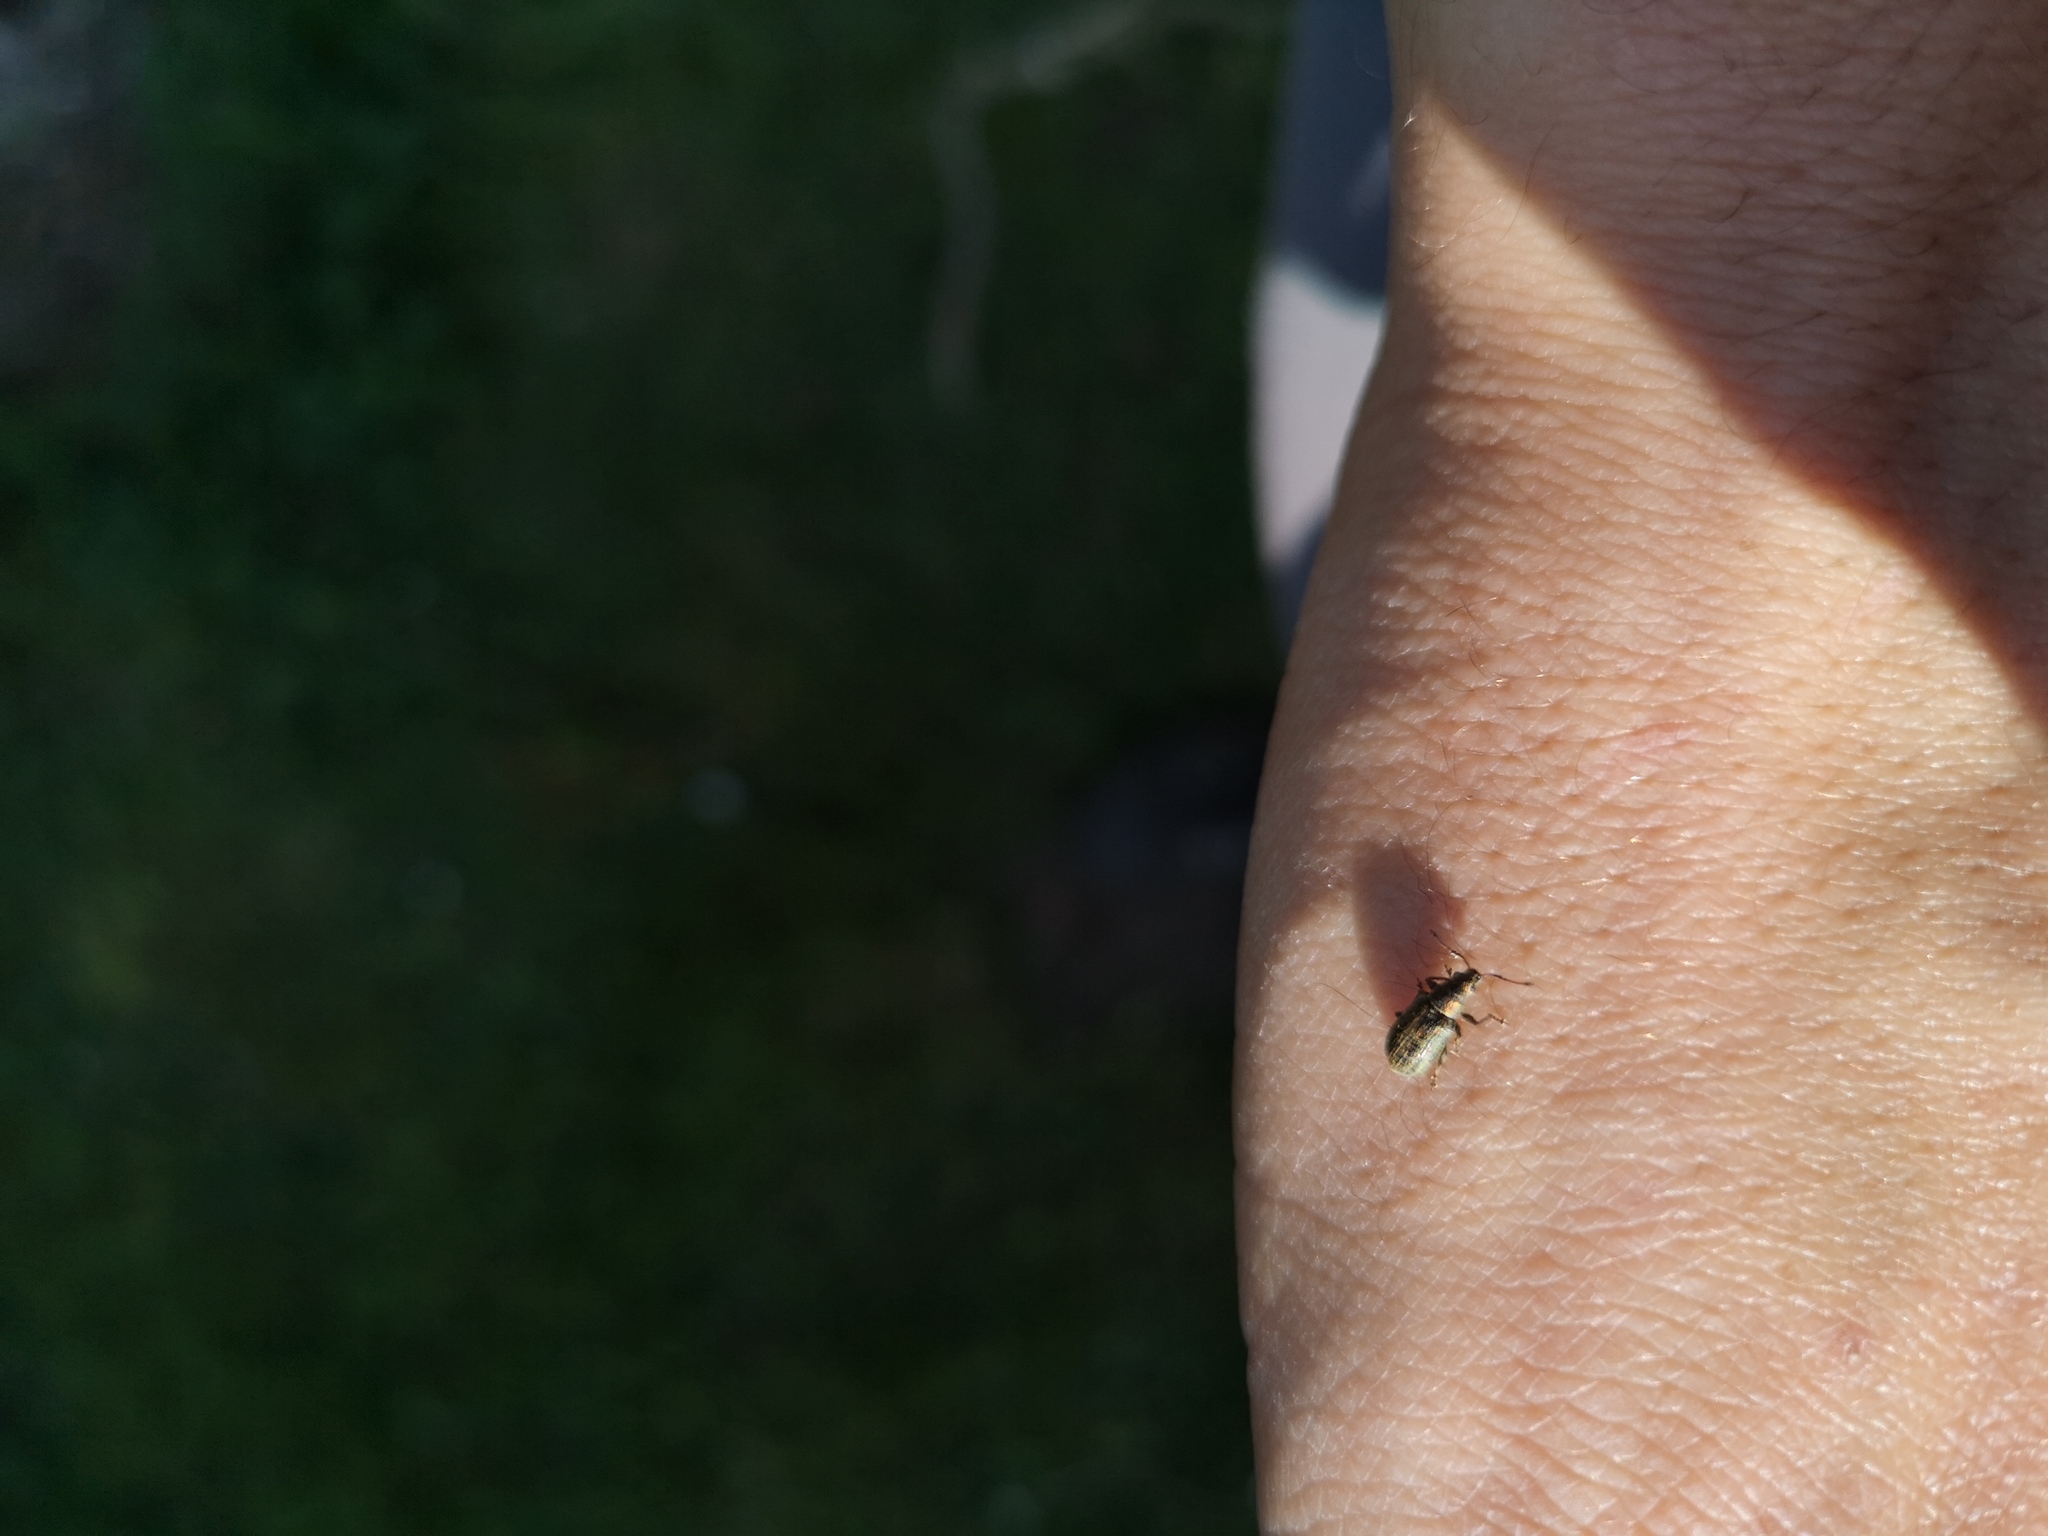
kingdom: Animalia
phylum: Arthropoda
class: Insecta
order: Coleoptera
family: Curculionidae
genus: Phyllobius
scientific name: Phyllobius pyri
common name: Common leaf weevil
